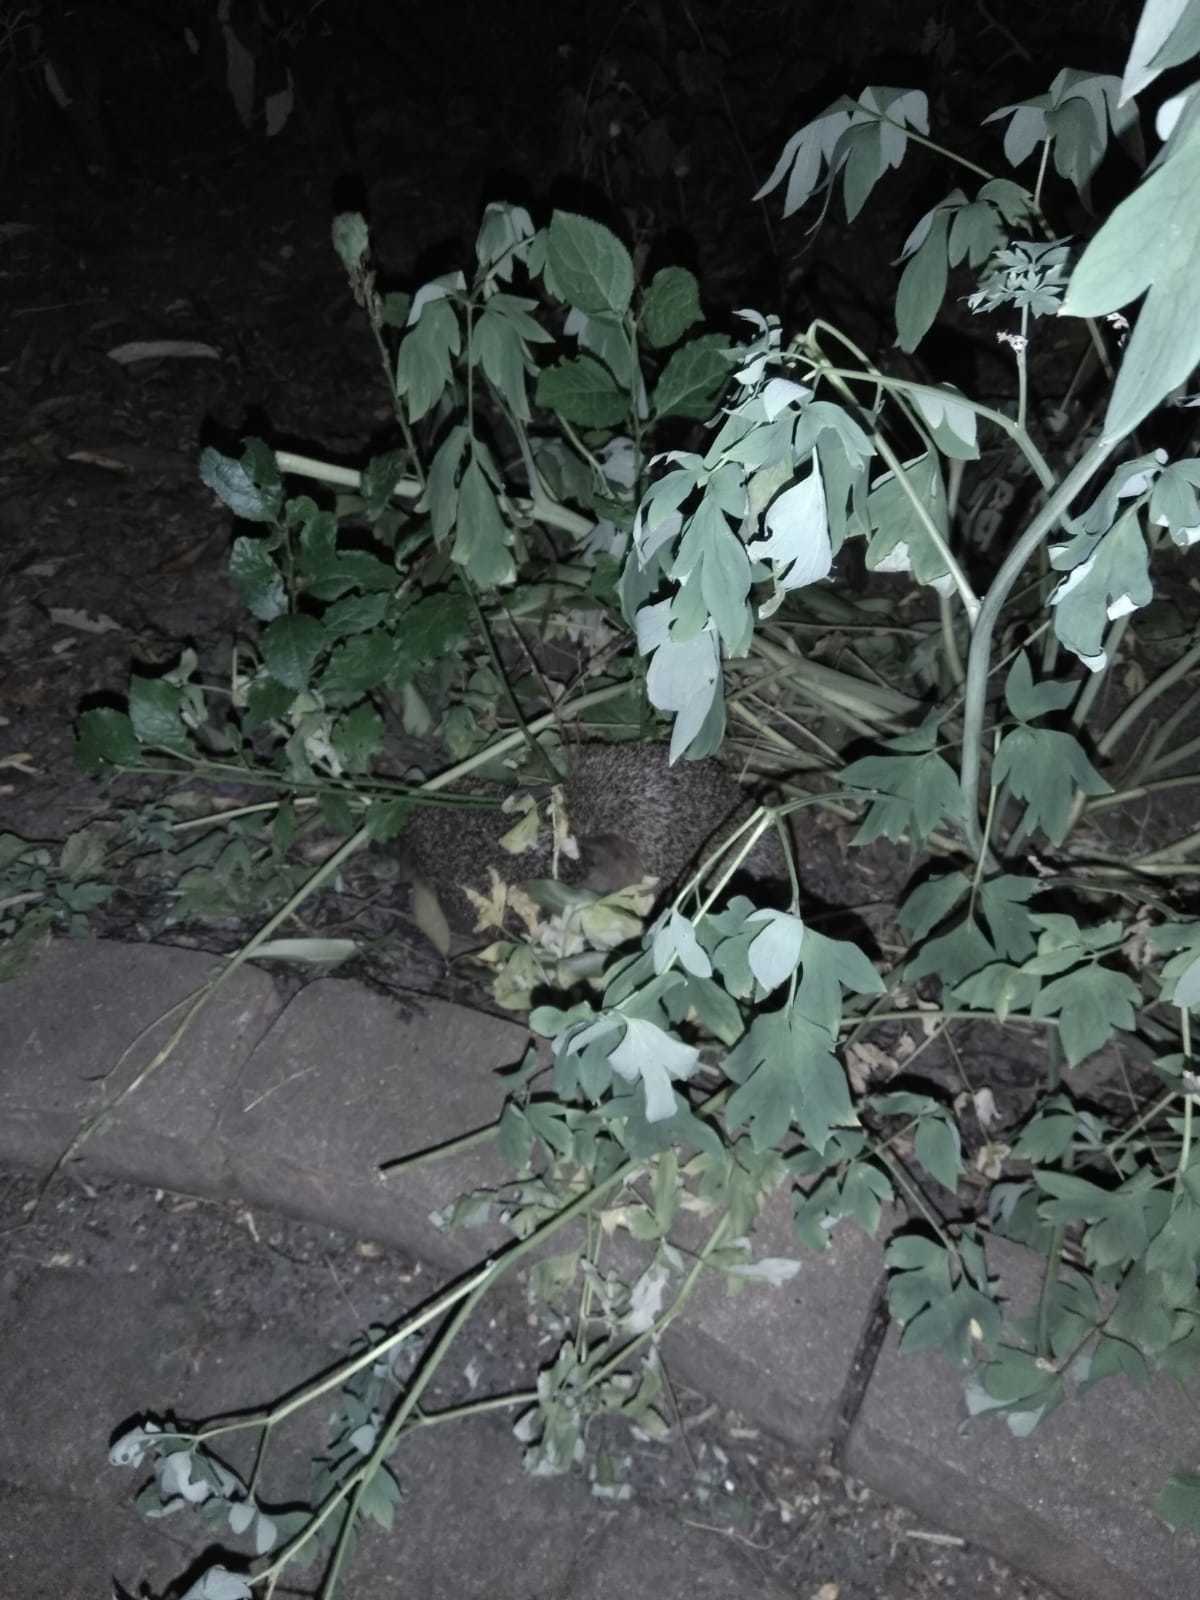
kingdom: Animalia
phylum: Chordata
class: Mammalia
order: Erinaceomorpha
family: Erinaceidae
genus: Erinaceus
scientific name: Erinaceus europaeus
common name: West european hedgehog
